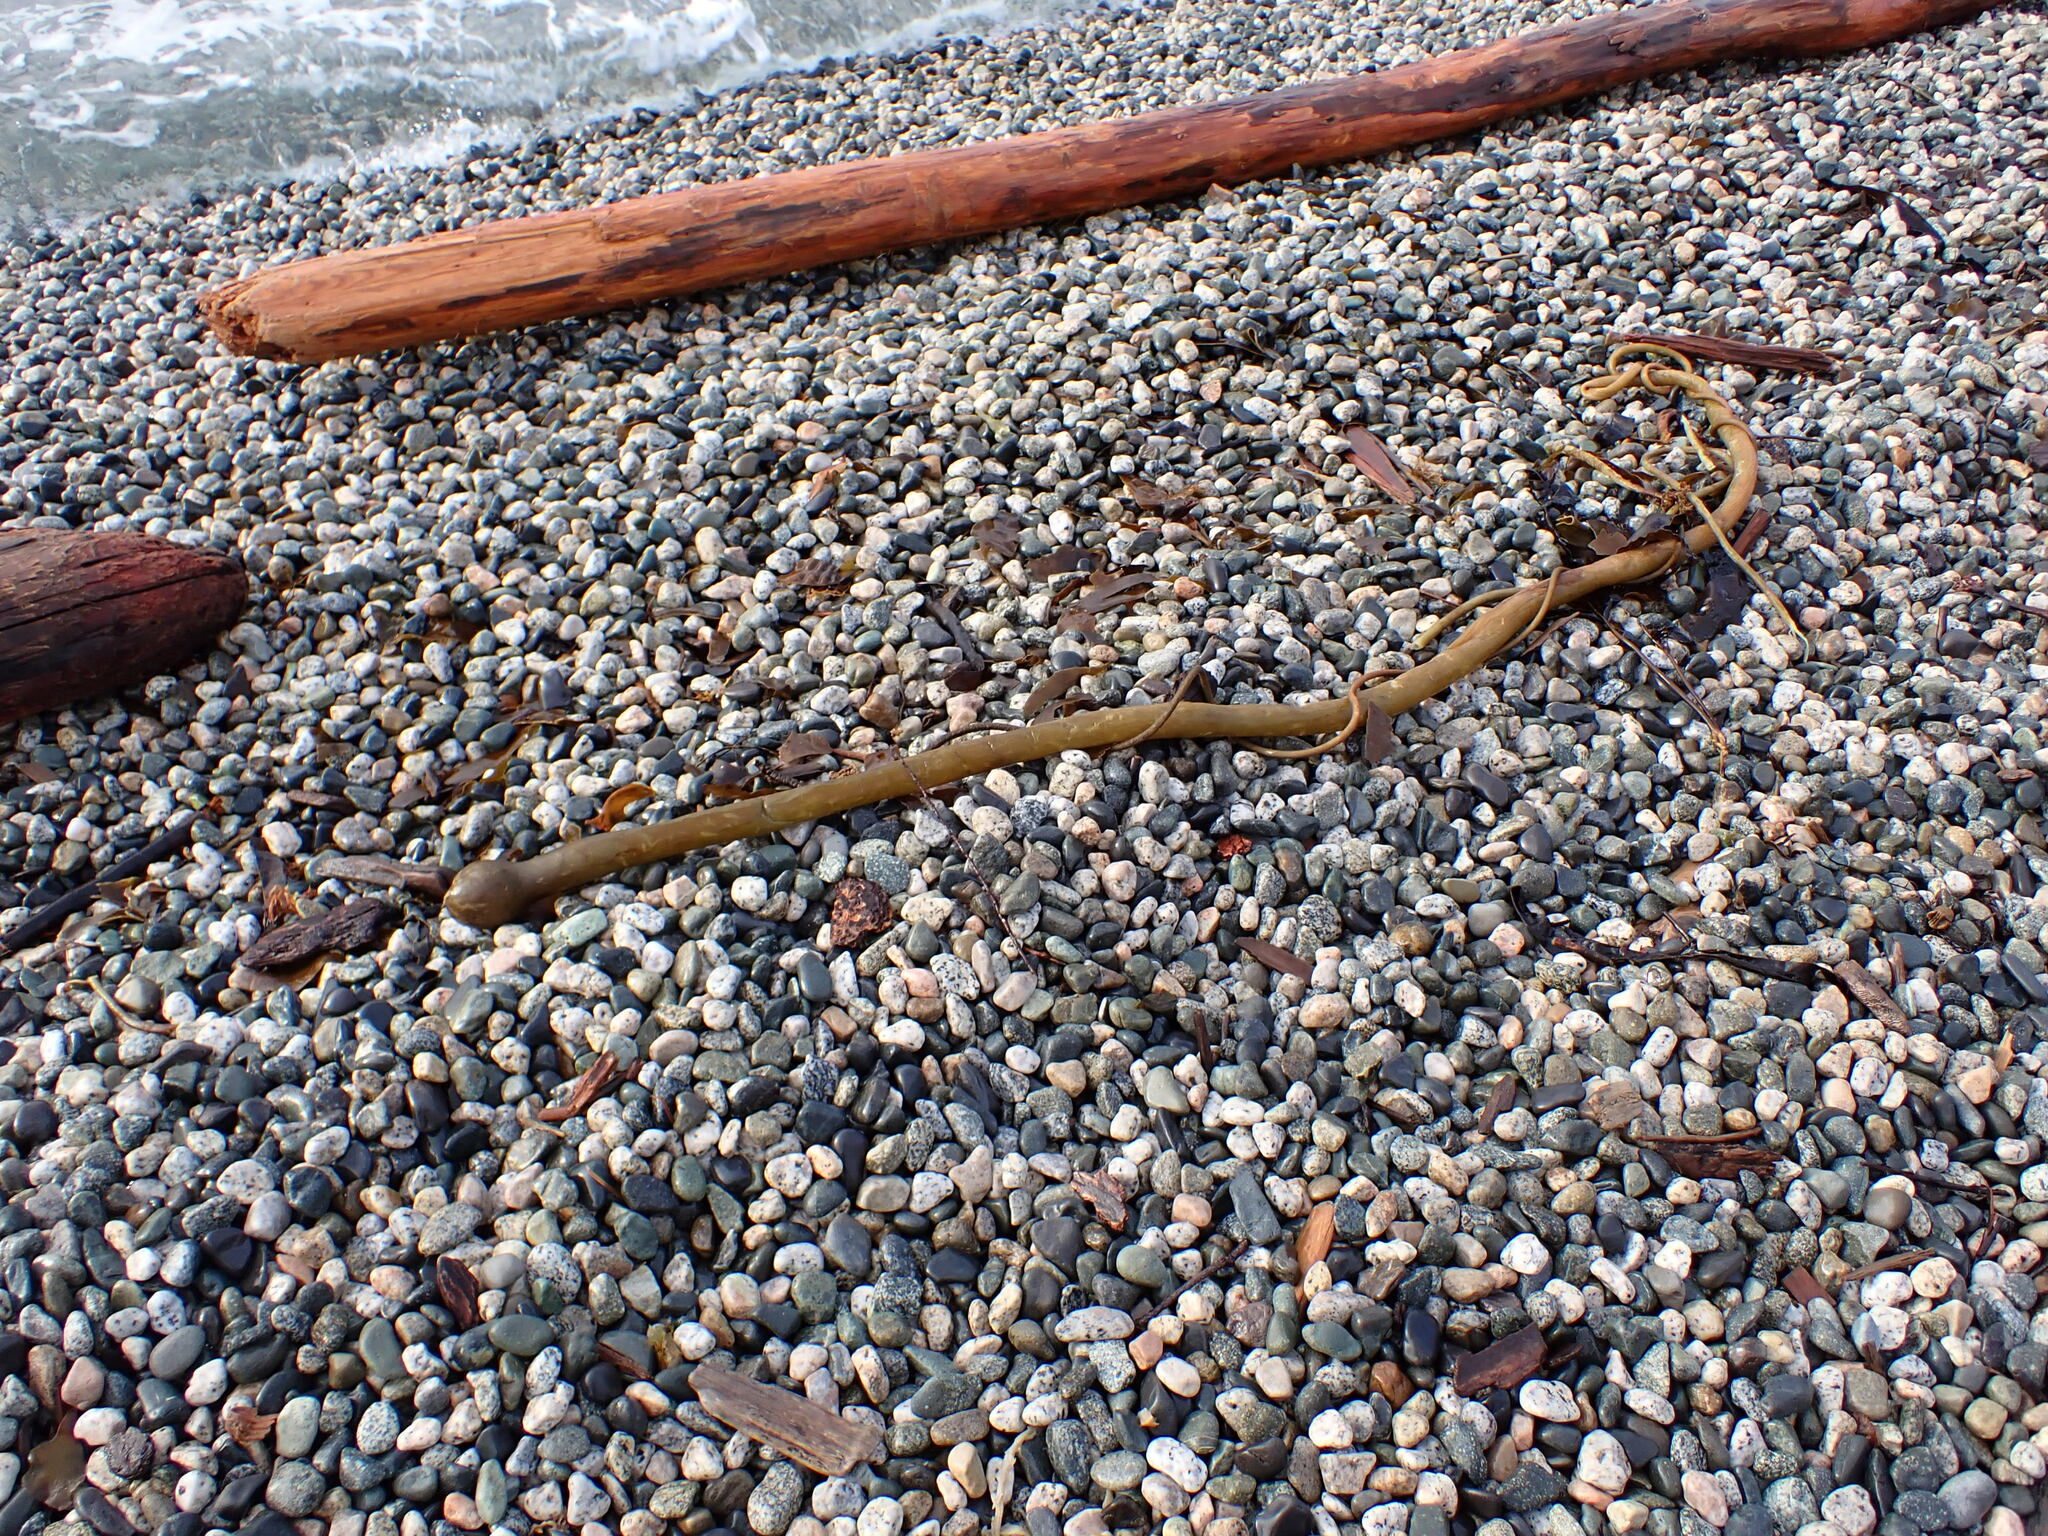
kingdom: Chromista
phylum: Ochrophyta
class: Phaeophyceae
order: Laminariales
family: Laminariaceae
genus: Nereocystis
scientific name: Nereocystis luetkeana
